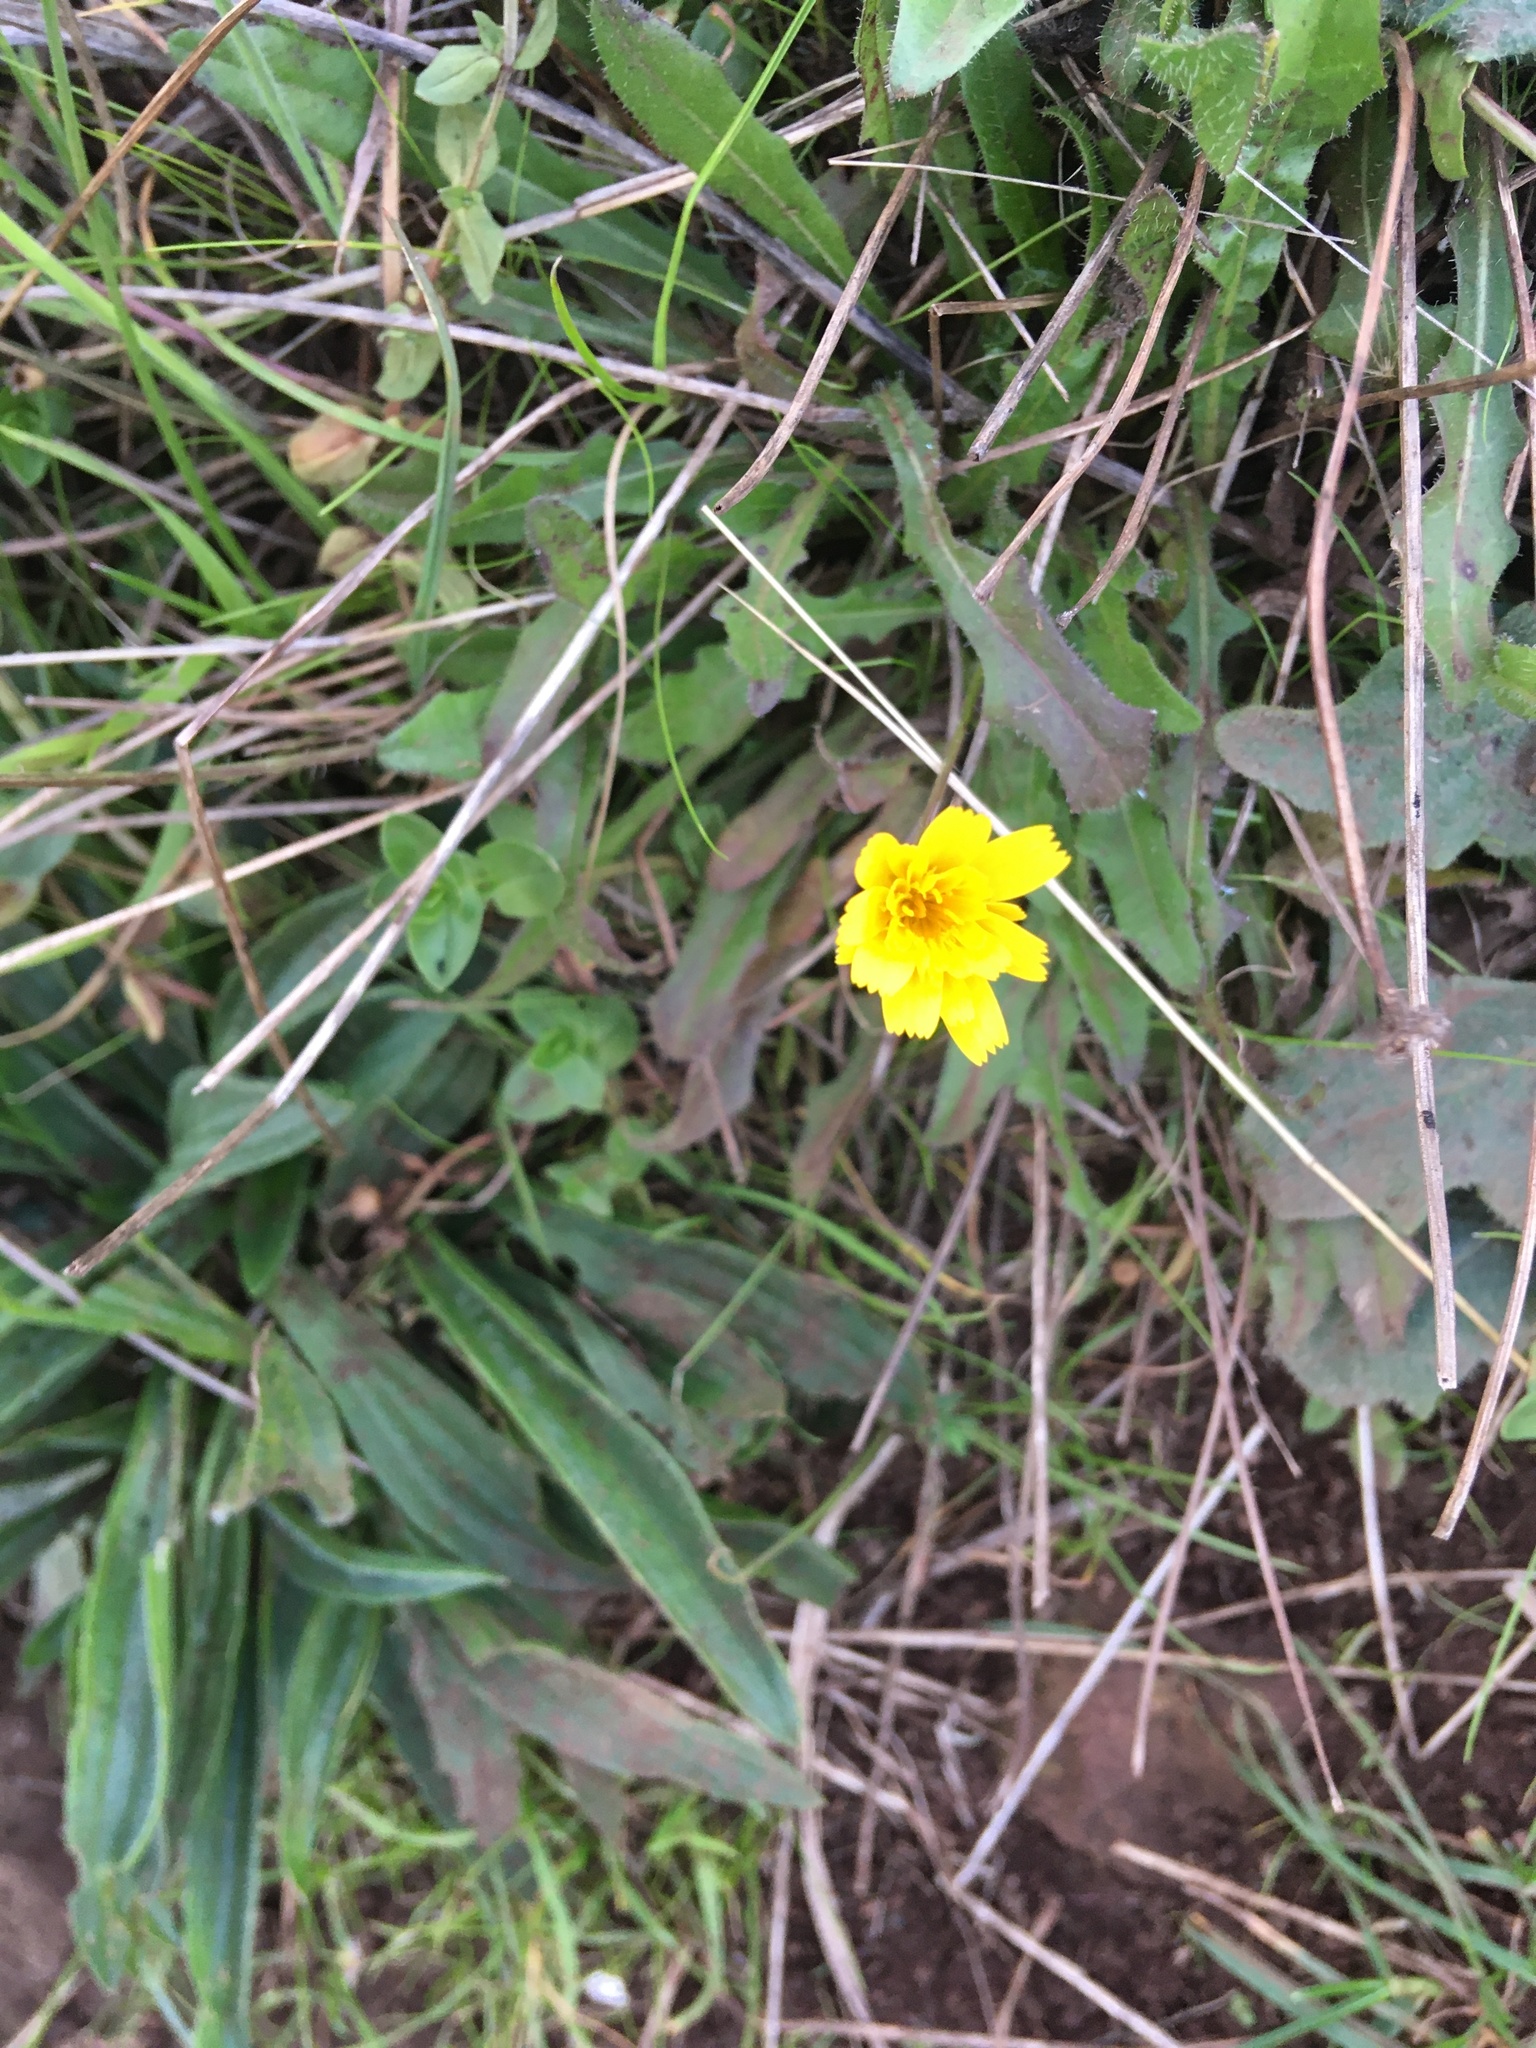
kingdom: Plantae
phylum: Tracheophyta
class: Magnoliopsida
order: Asterales
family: Asteraceae
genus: Hypochaeris
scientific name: Hypochaeris radicata
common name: Flatweed
